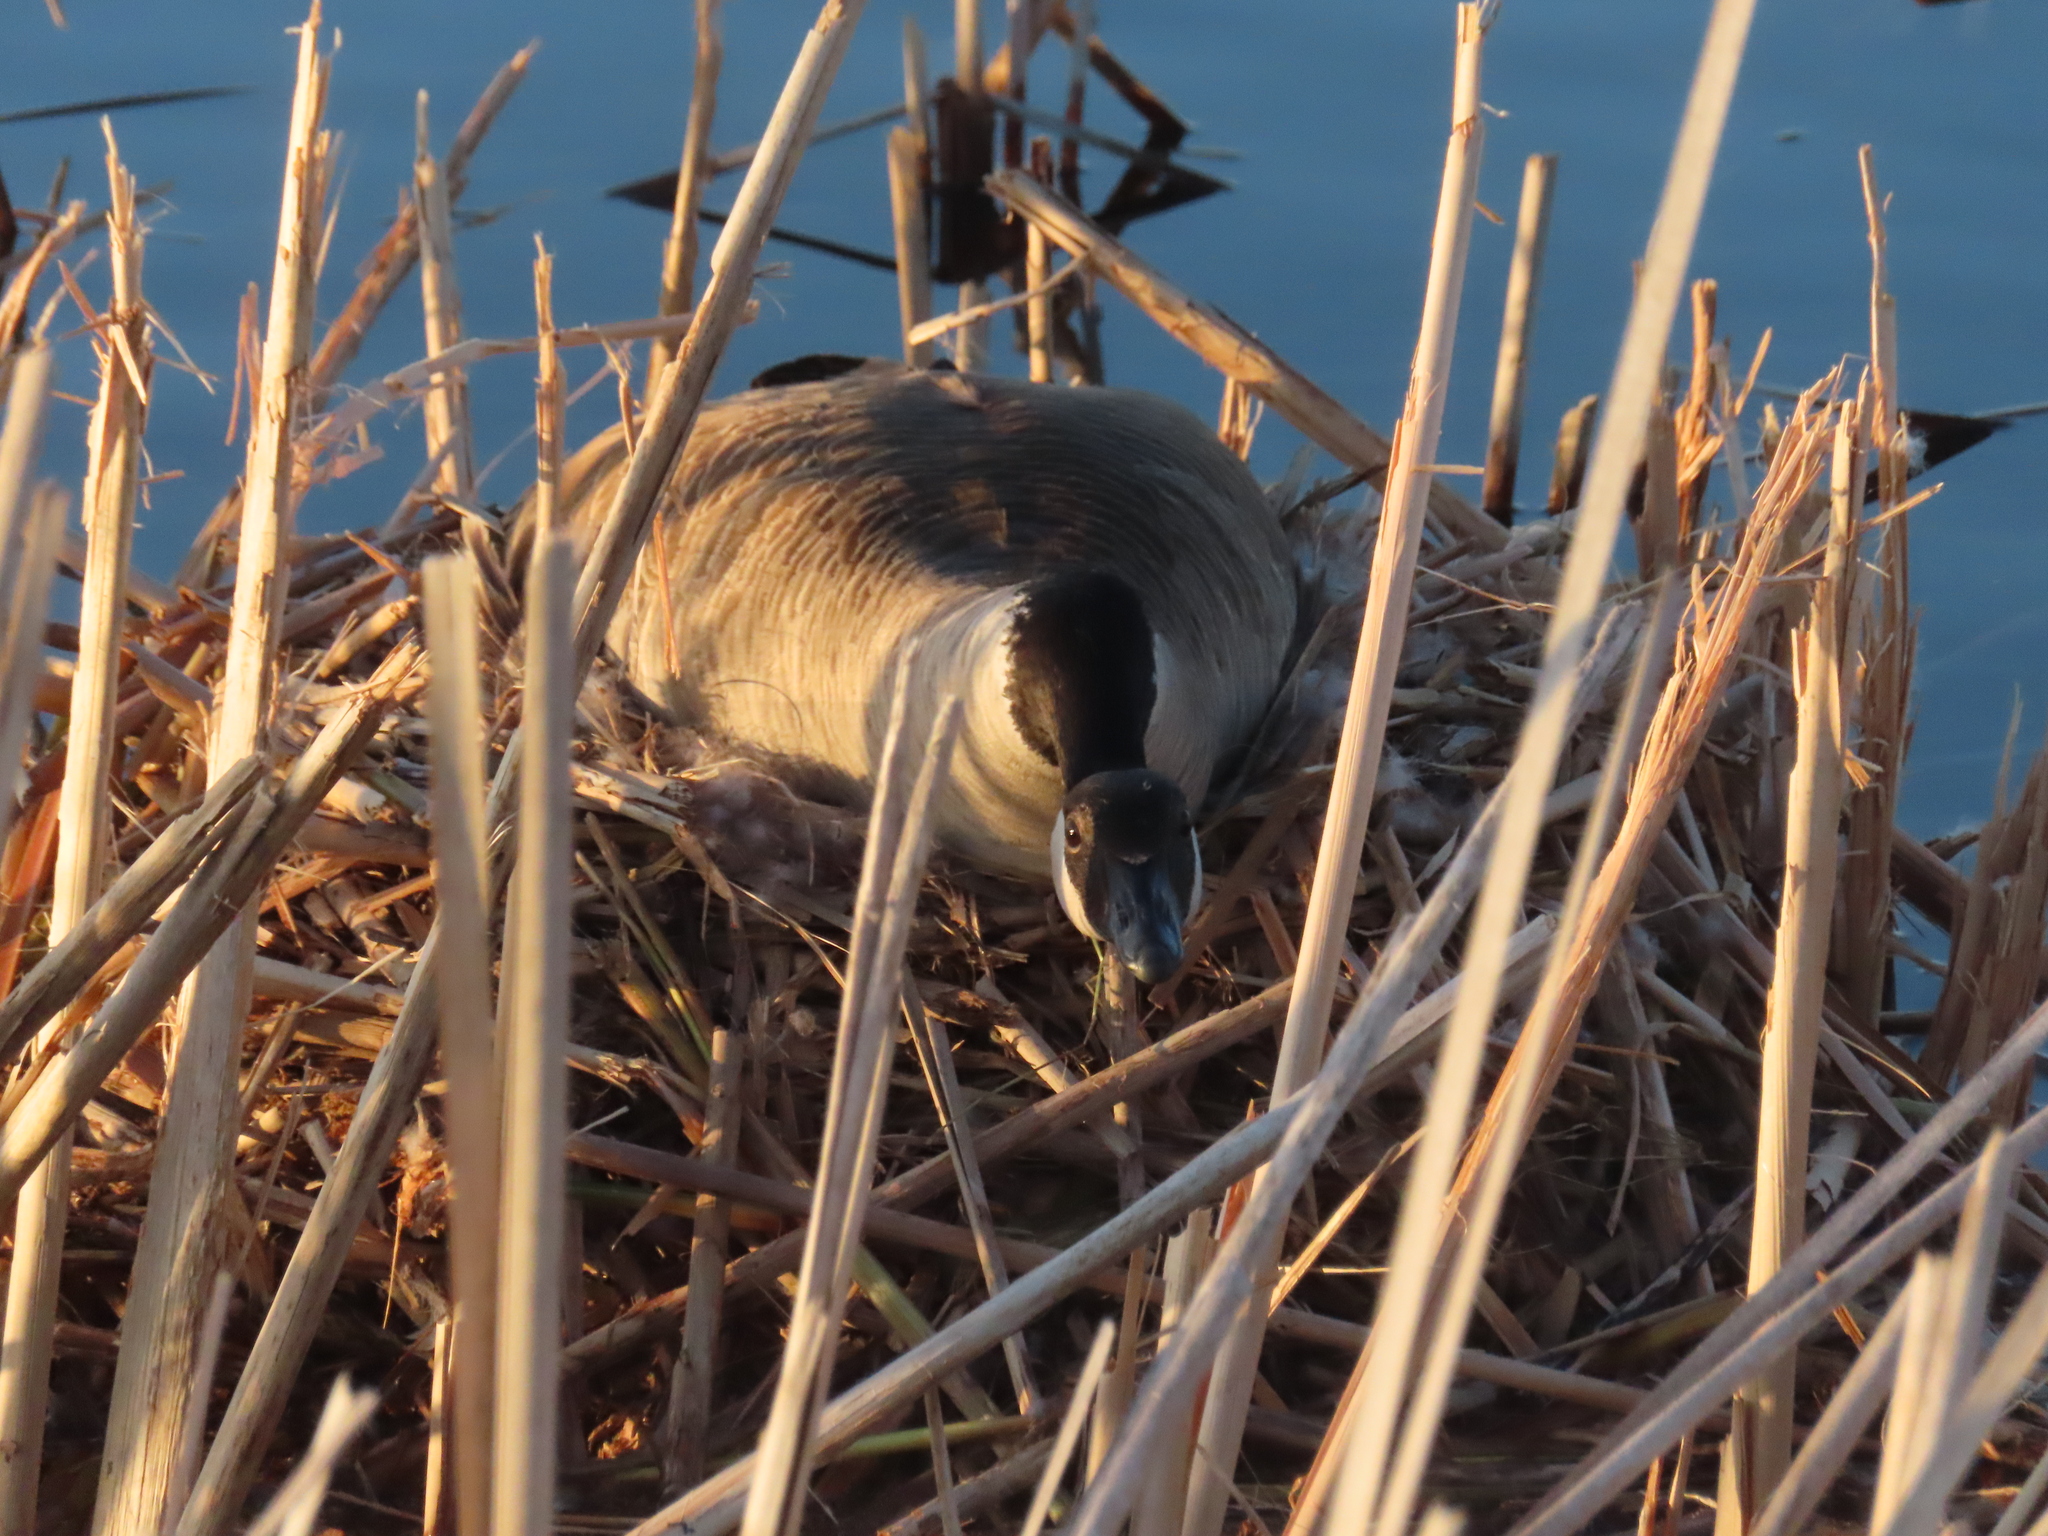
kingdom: Animalia
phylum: Chordata
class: Aves
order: Anseriformes
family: Anatidae
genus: Branta
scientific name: Branta canadensis
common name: Canada goose
